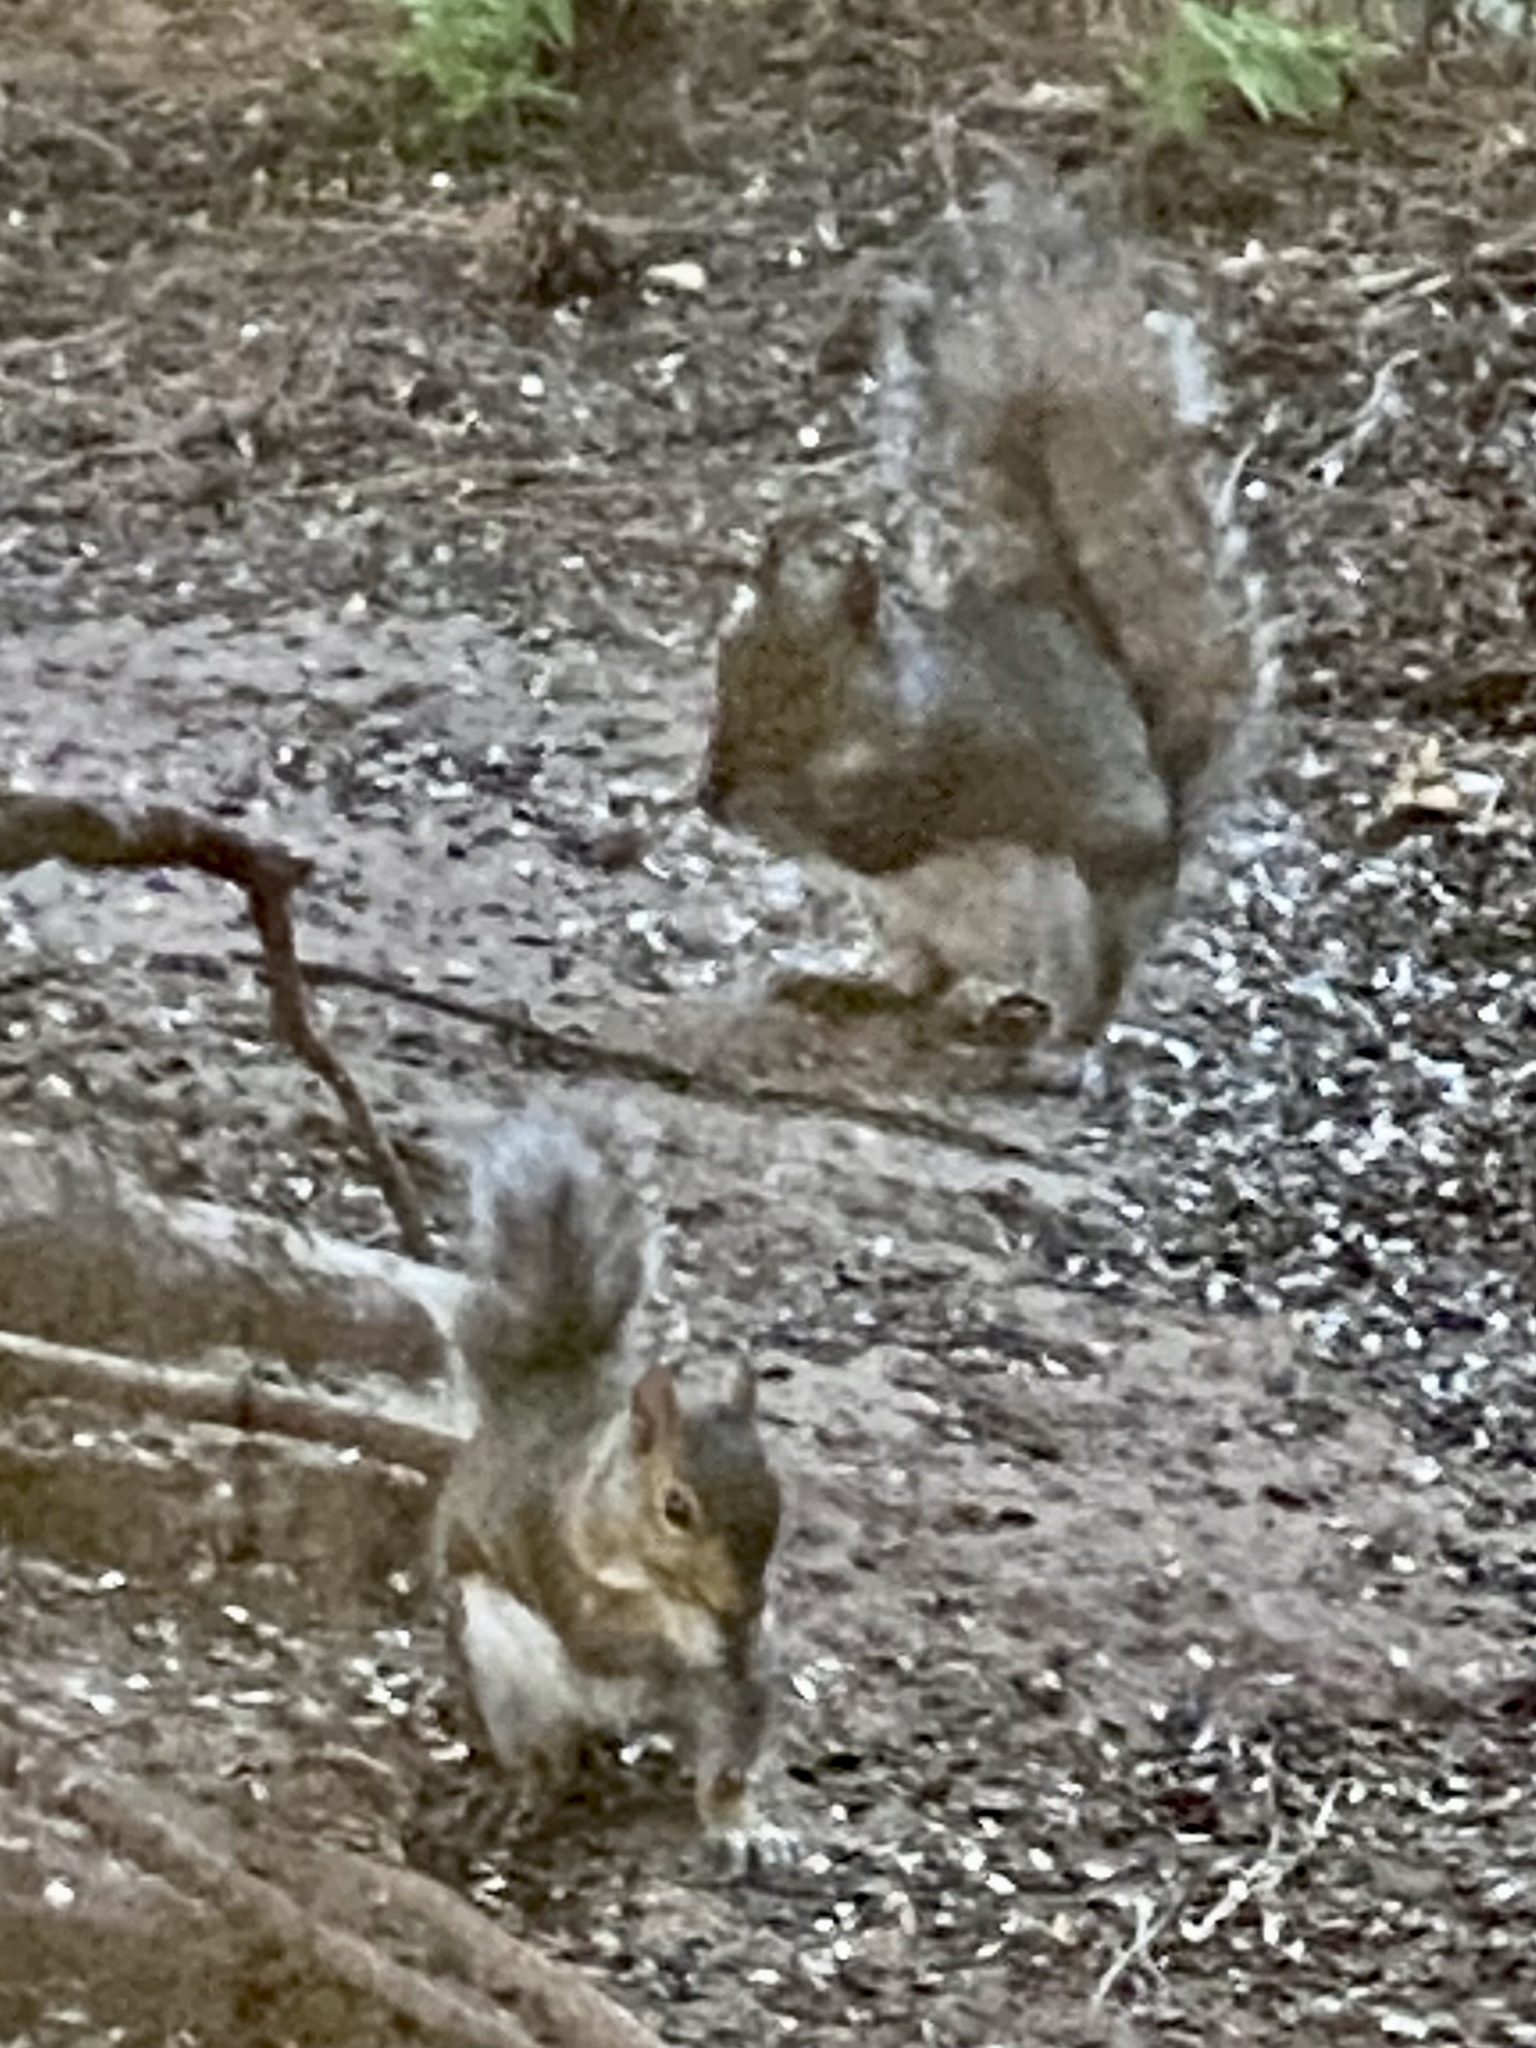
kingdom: Animalia
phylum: Chordata
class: Mammalia
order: Rodentia
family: Sciuridae
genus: Sciurus
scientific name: Sciurus carolinensis
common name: Eastern gray squirrel
